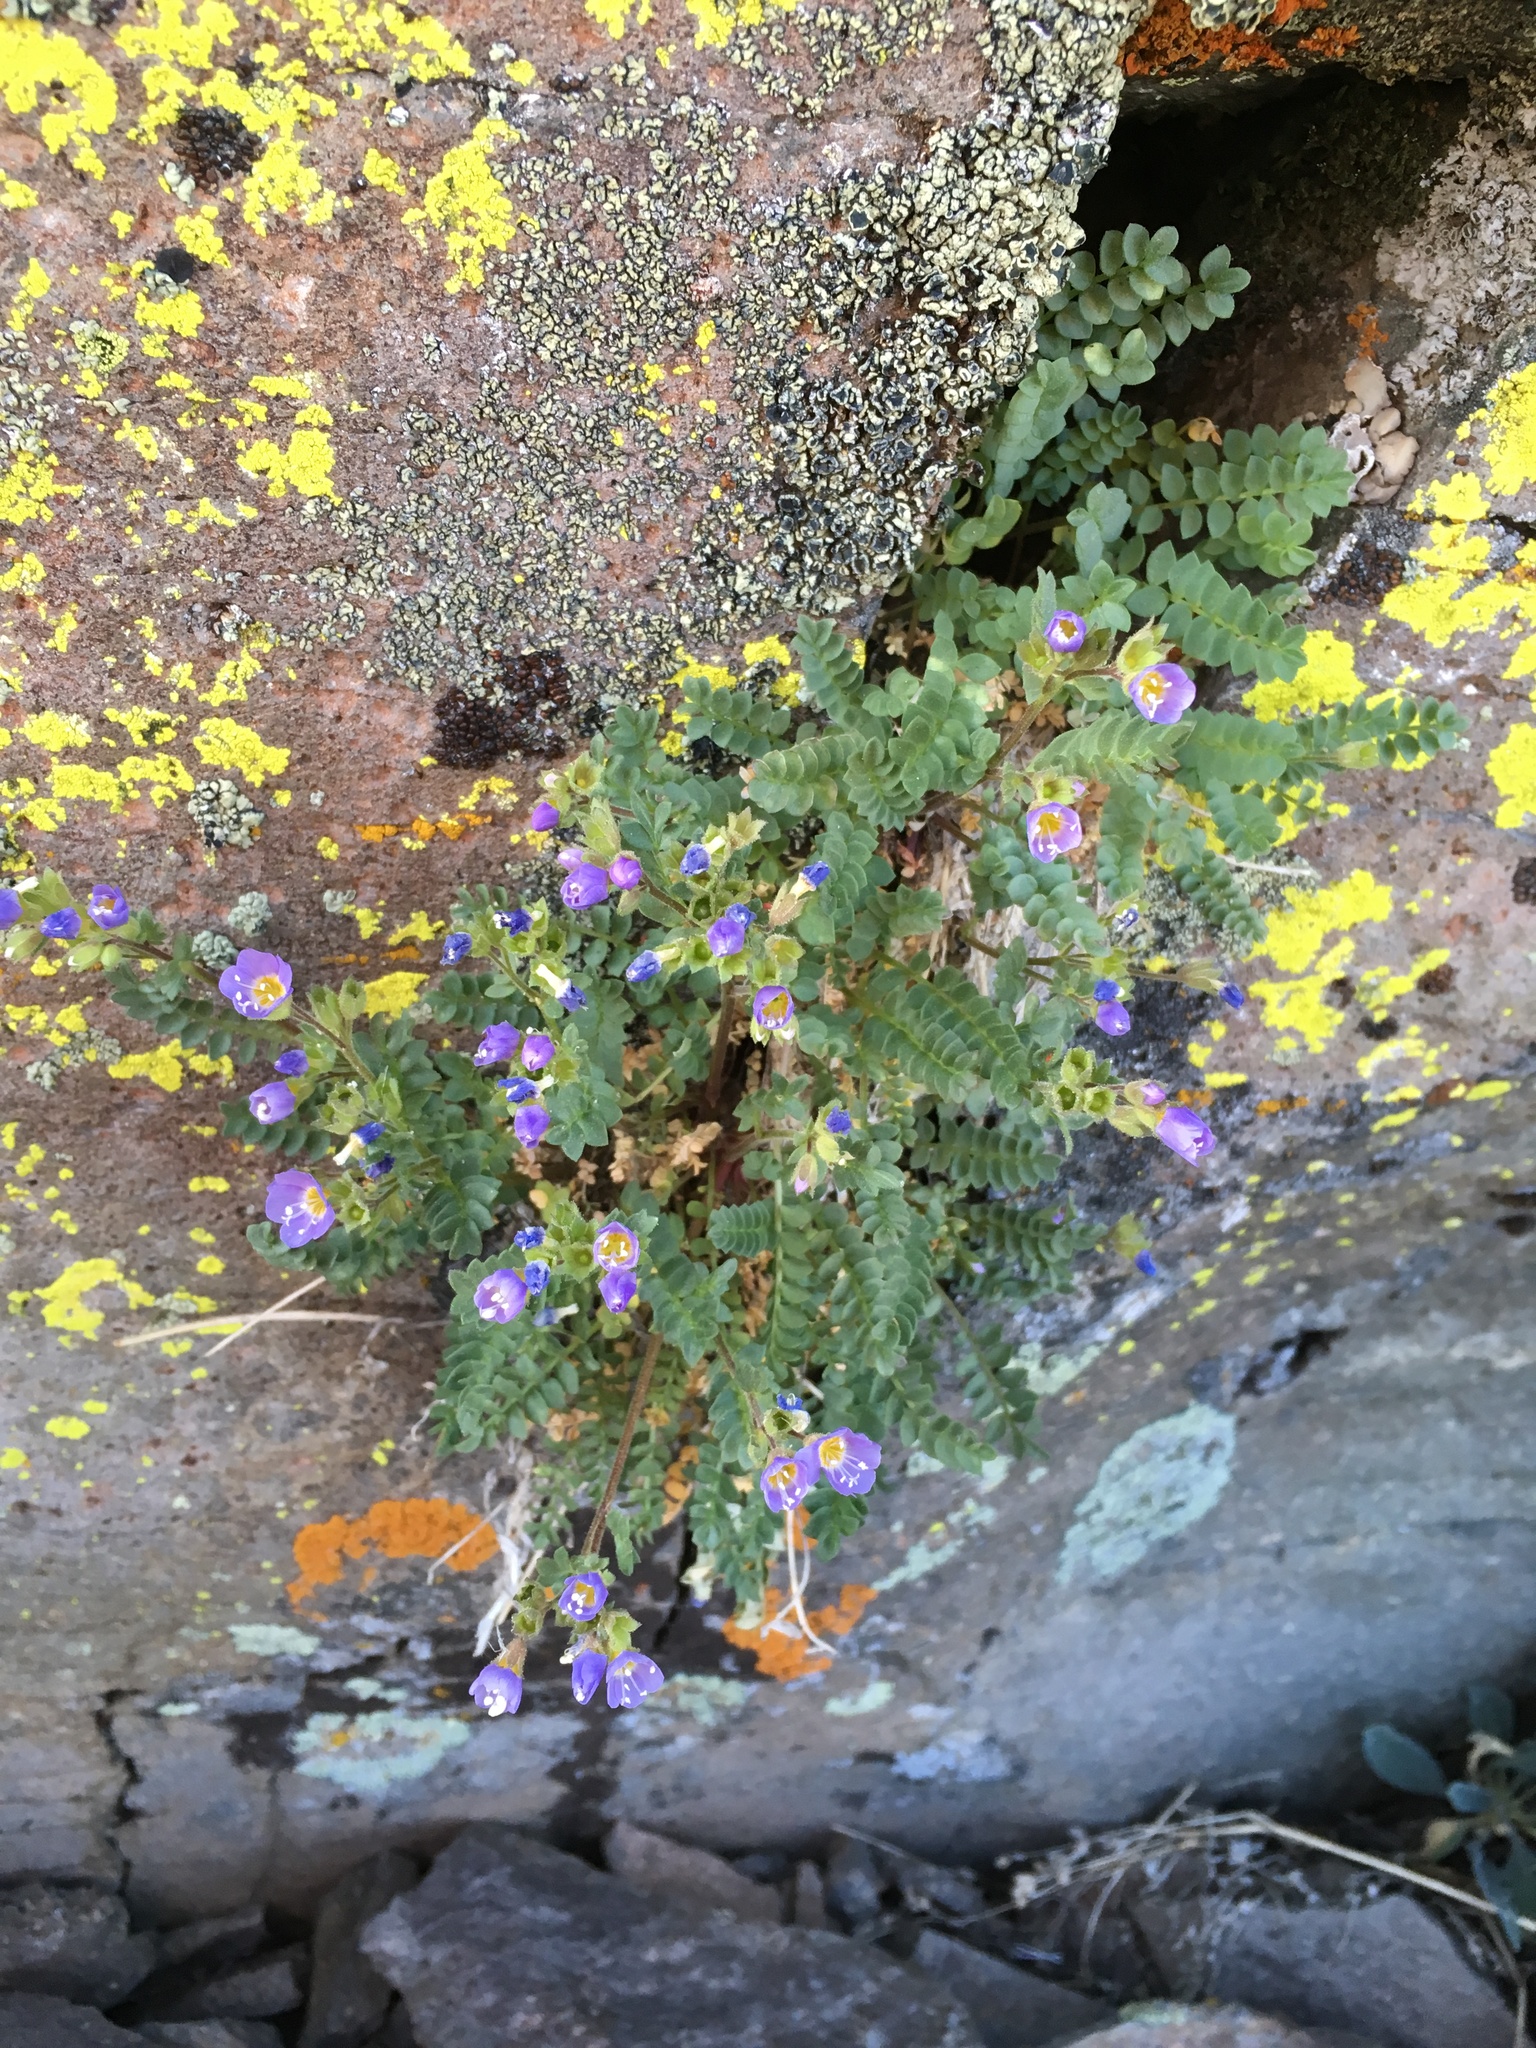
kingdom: Plantae
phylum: Tracheophyta
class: Magnoliopsida
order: Ericales
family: Polemoniaceae
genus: Polemonium
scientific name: Polemonium pulcherrimum
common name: Short jacob's-ladder
